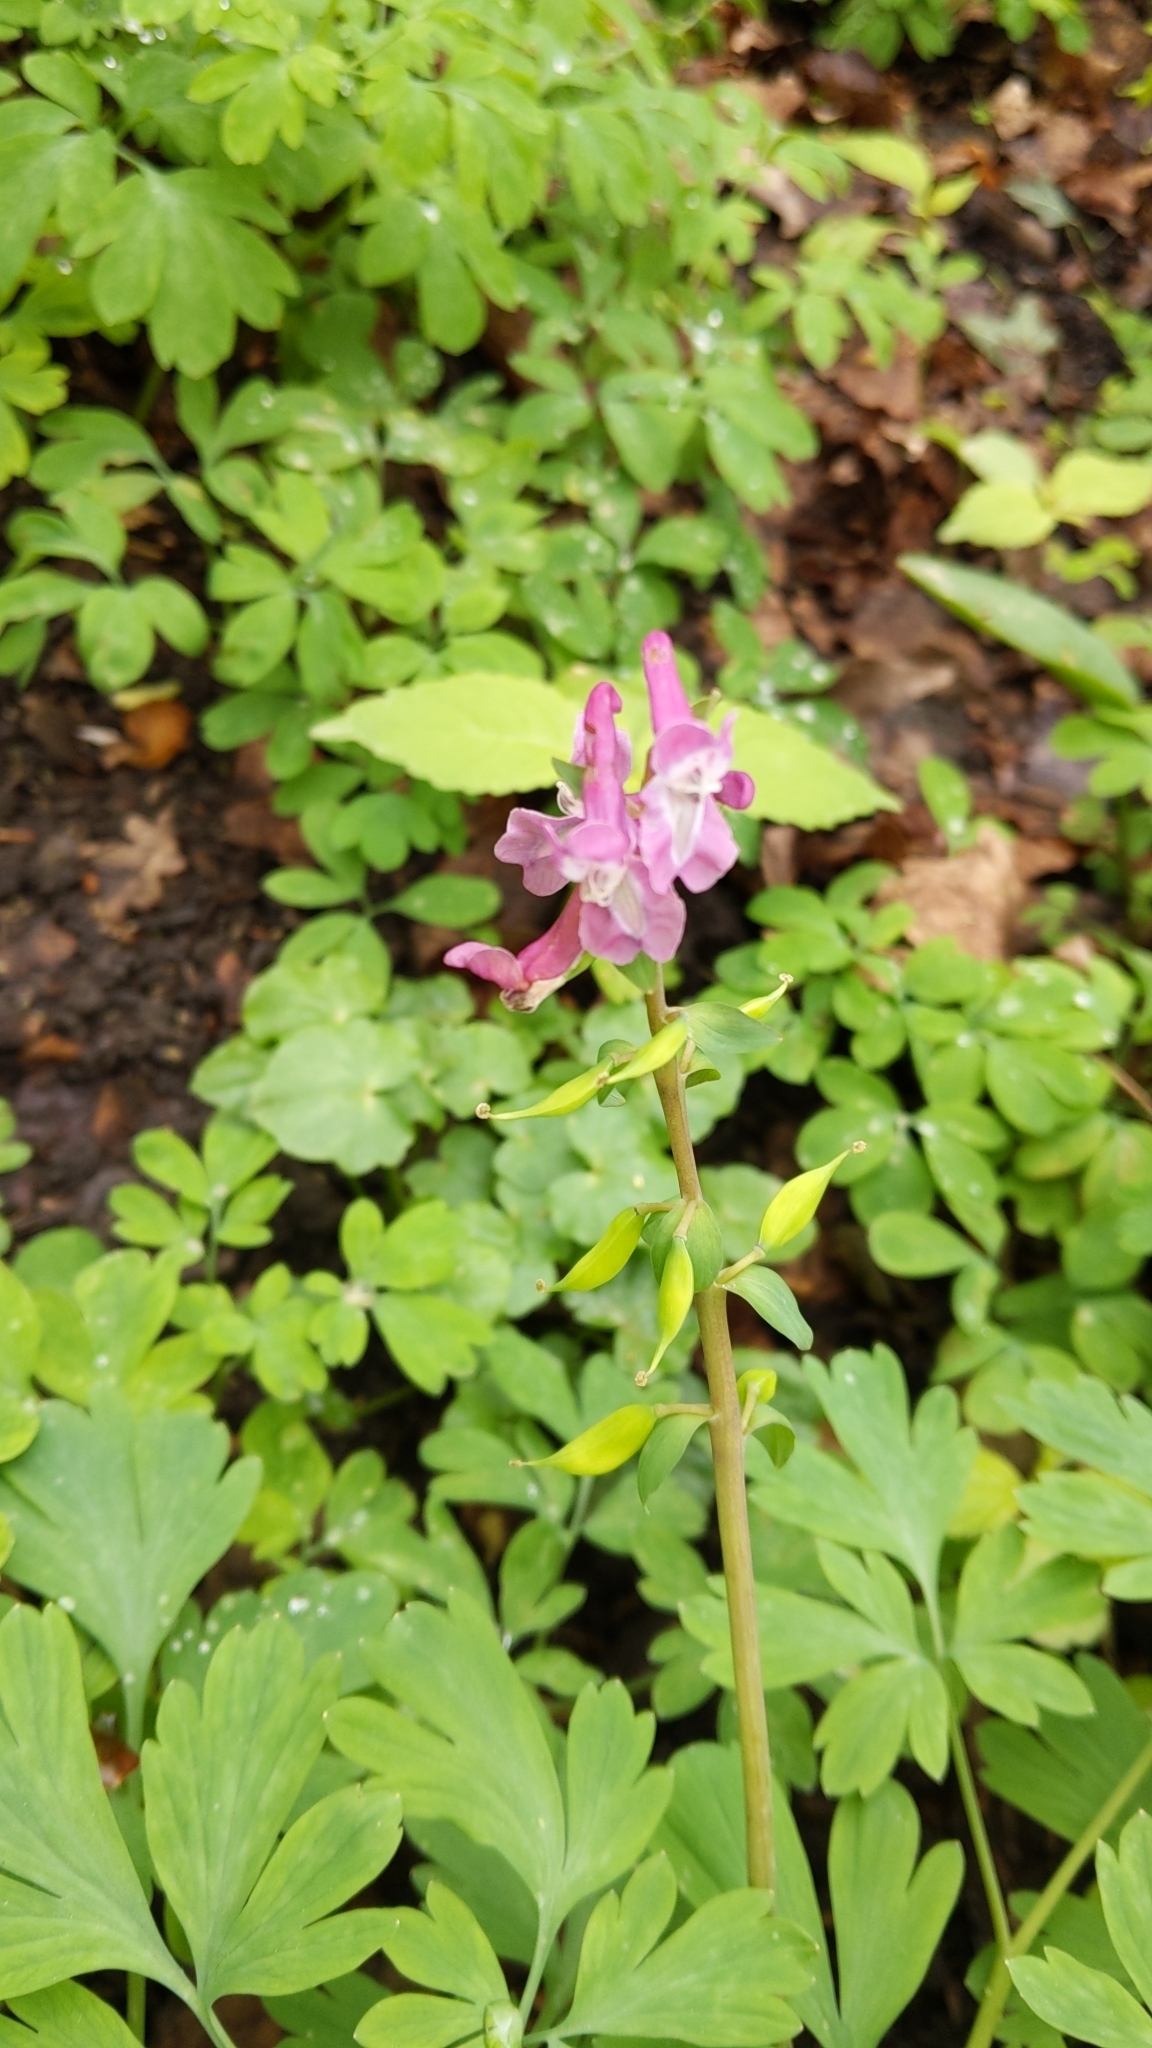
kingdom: Plantae
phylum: Tracheophyta
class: Magnoliopsida
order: Ranunculales
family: Papaveraceae
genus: Corydalis
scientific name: Corydalis cava
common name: Hollowroot
